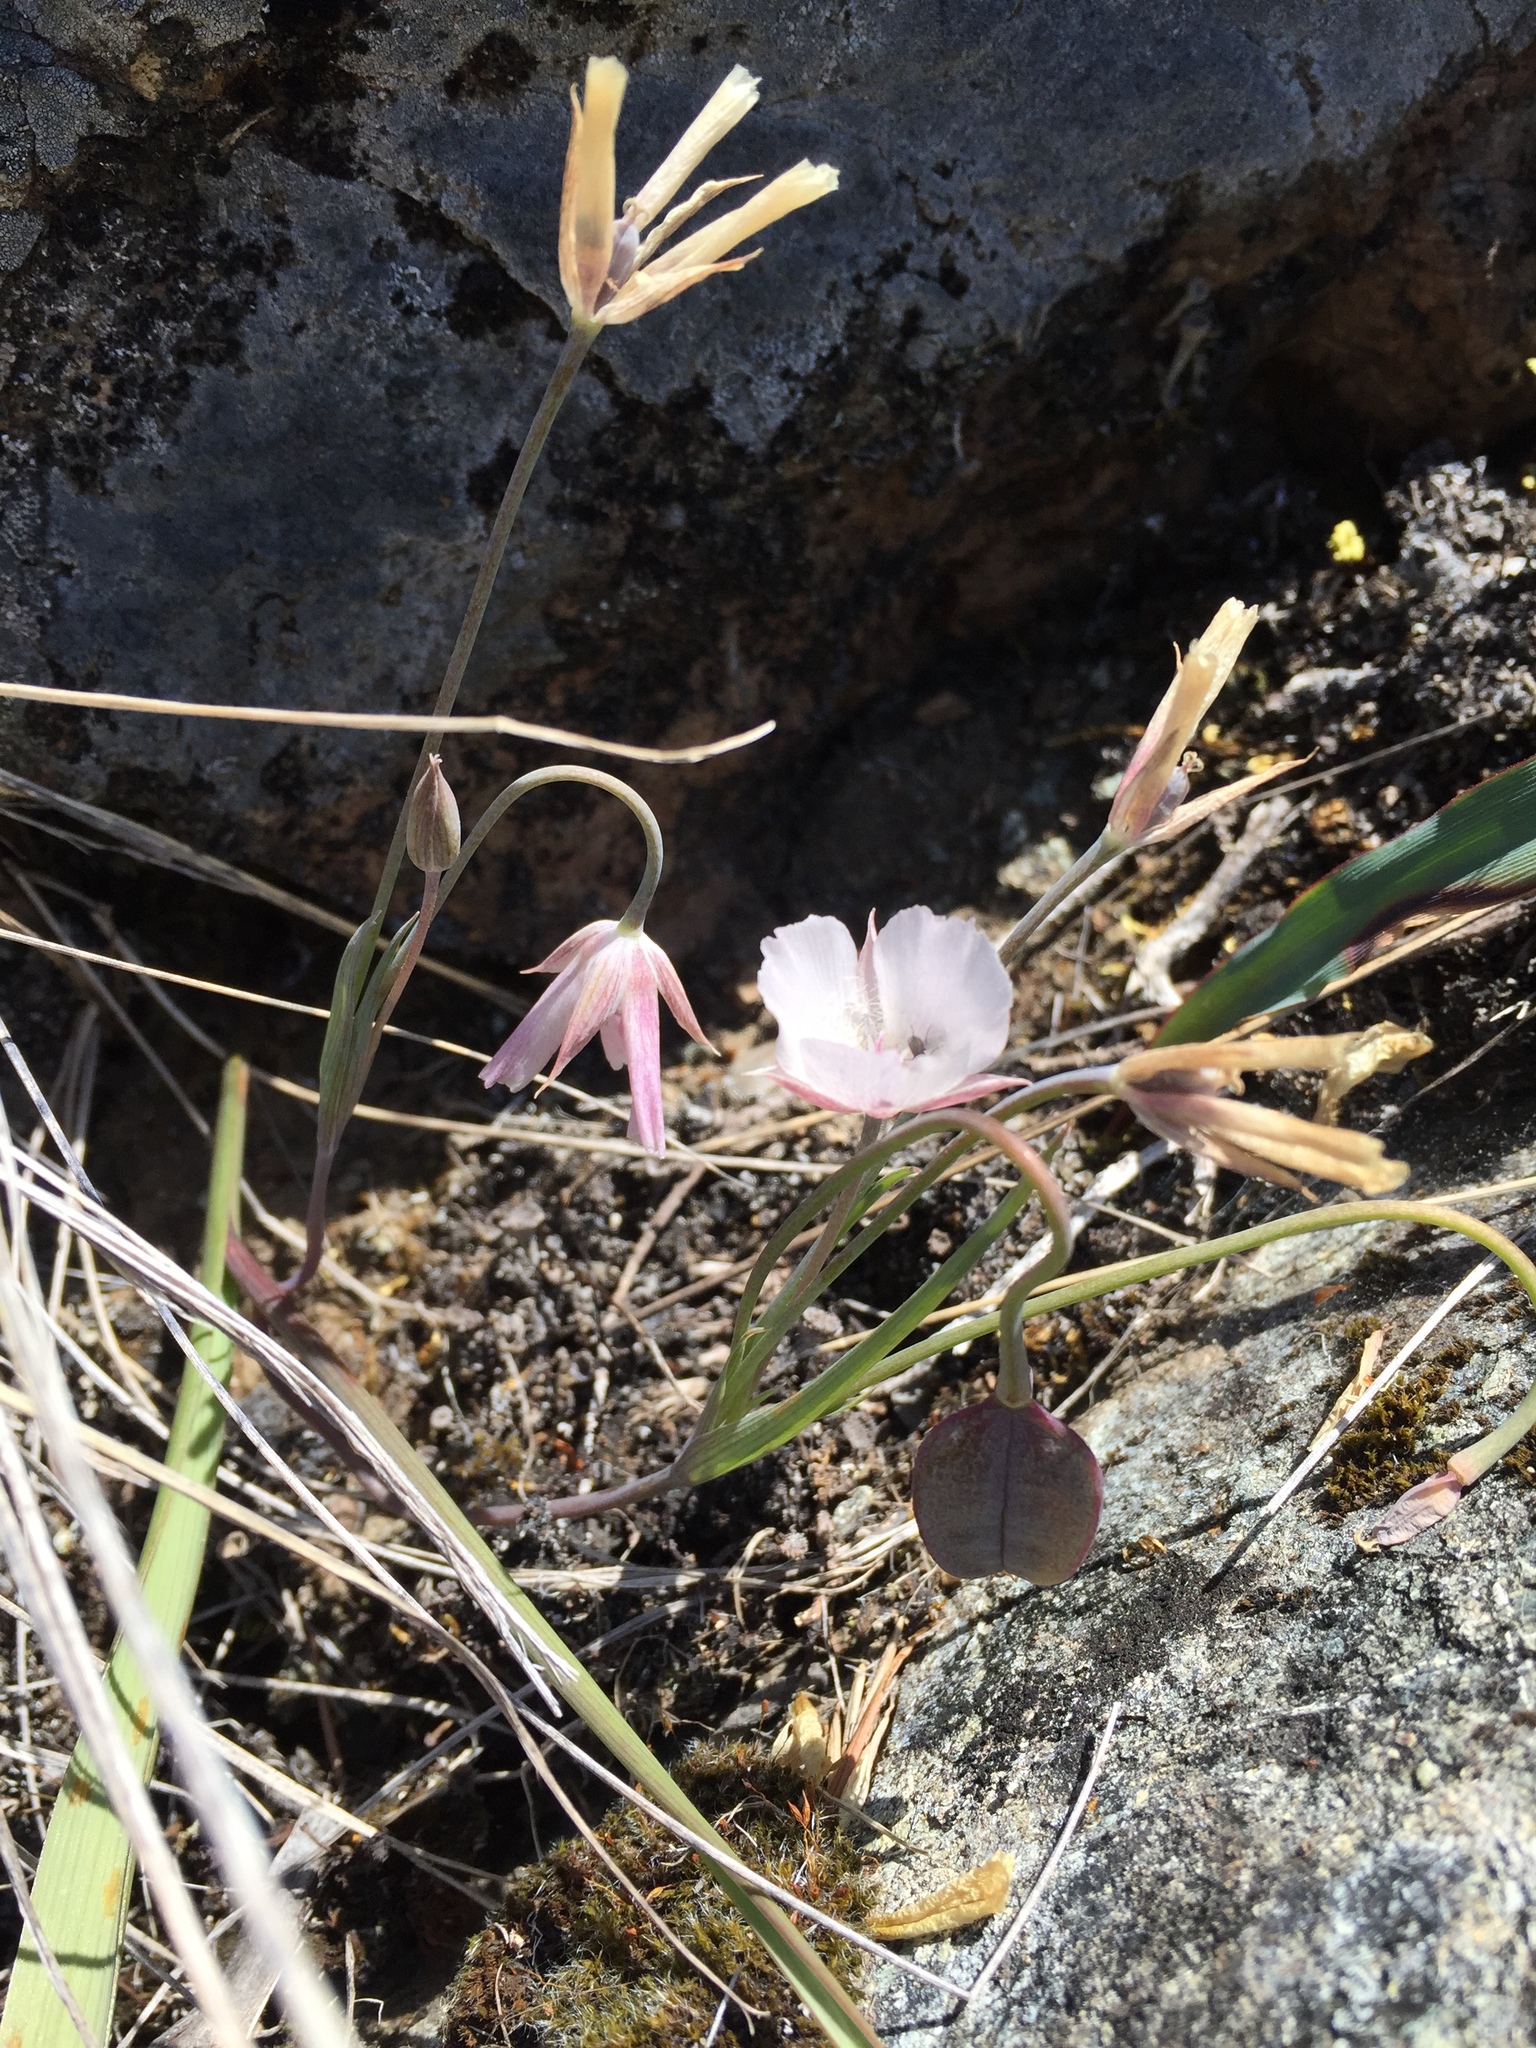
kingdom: Plantae
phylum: Tracheophyta
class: Liliopsida
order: Liliales
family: Liliaceae
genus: Calochortus
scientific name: Calochortus umbellatus
